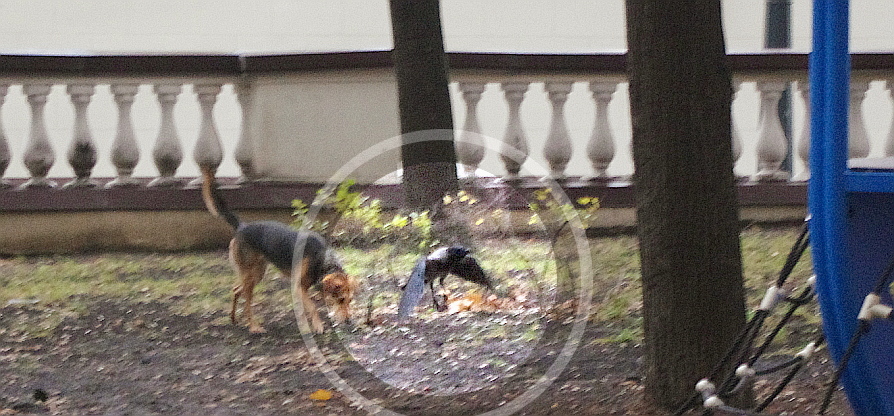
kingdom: Animalia
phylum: Chordata
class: Aves
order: Passeriformes
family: Corvidae
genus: Corvus
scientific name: Corvus cornix
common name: Hooded crow
